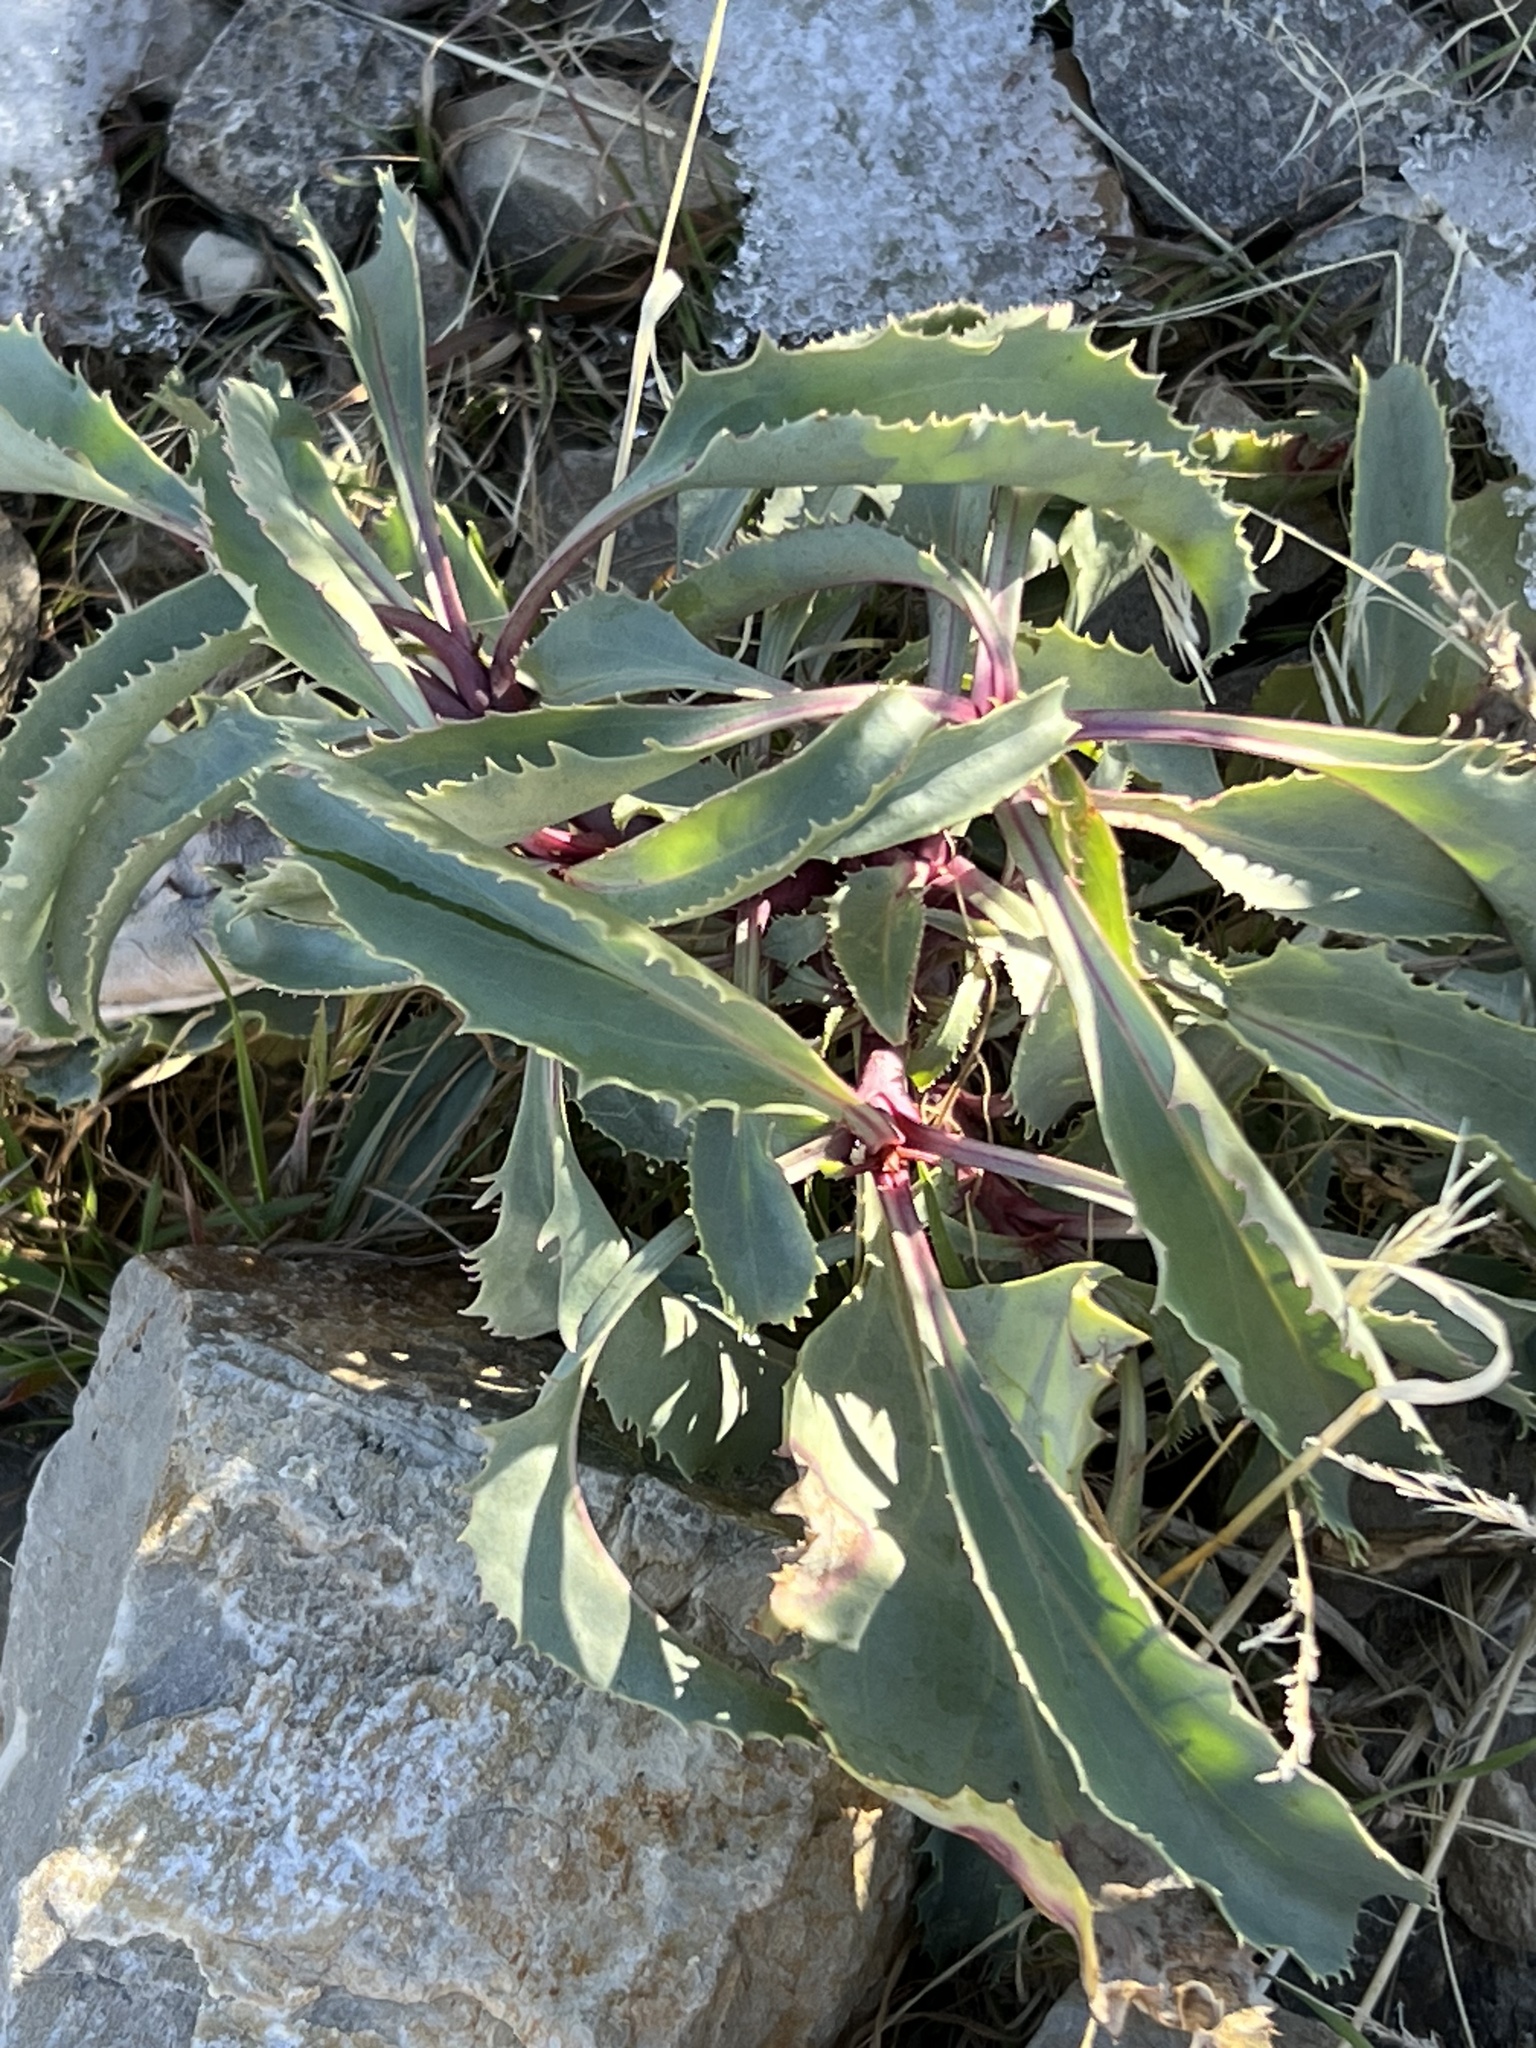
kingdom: Plantae
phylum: Tracheophyta
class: Magnoliopsida
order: Lamiales
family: Plantaginaceae
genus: Penstemon
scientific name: Penstemon palmeri
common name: Palmer penstemon
